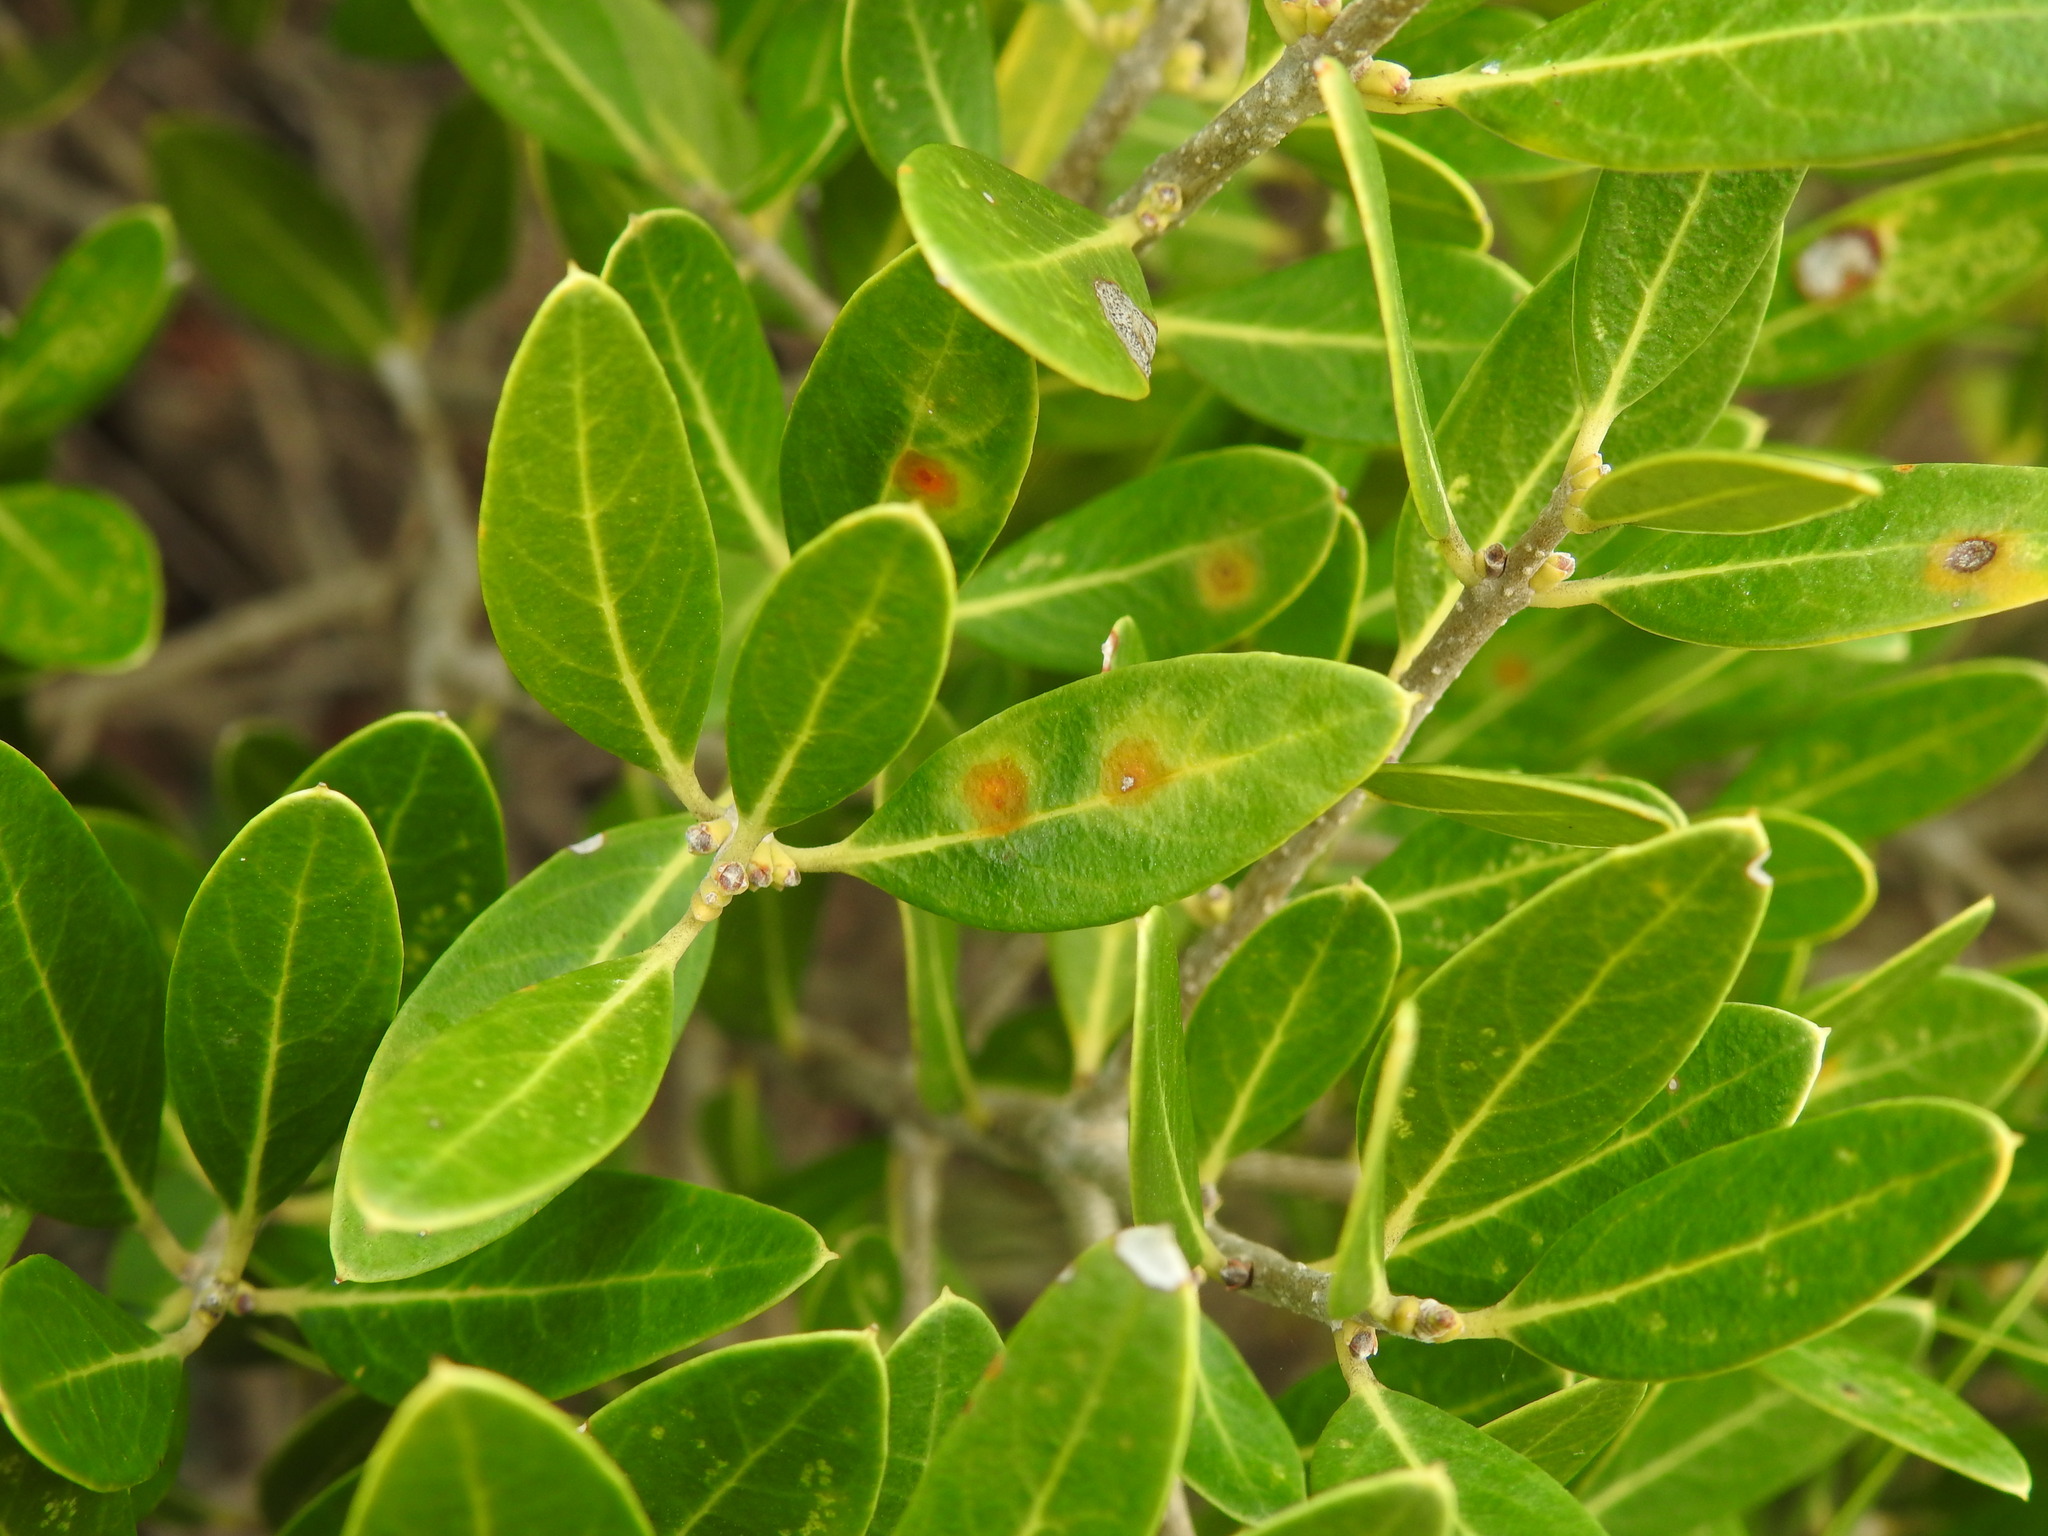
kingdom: Animalia
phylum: Arthropoda
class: Insecta
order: Diptera
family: Cecidomyiidae
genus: Braueriella
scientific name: Braueriella phillyreae
